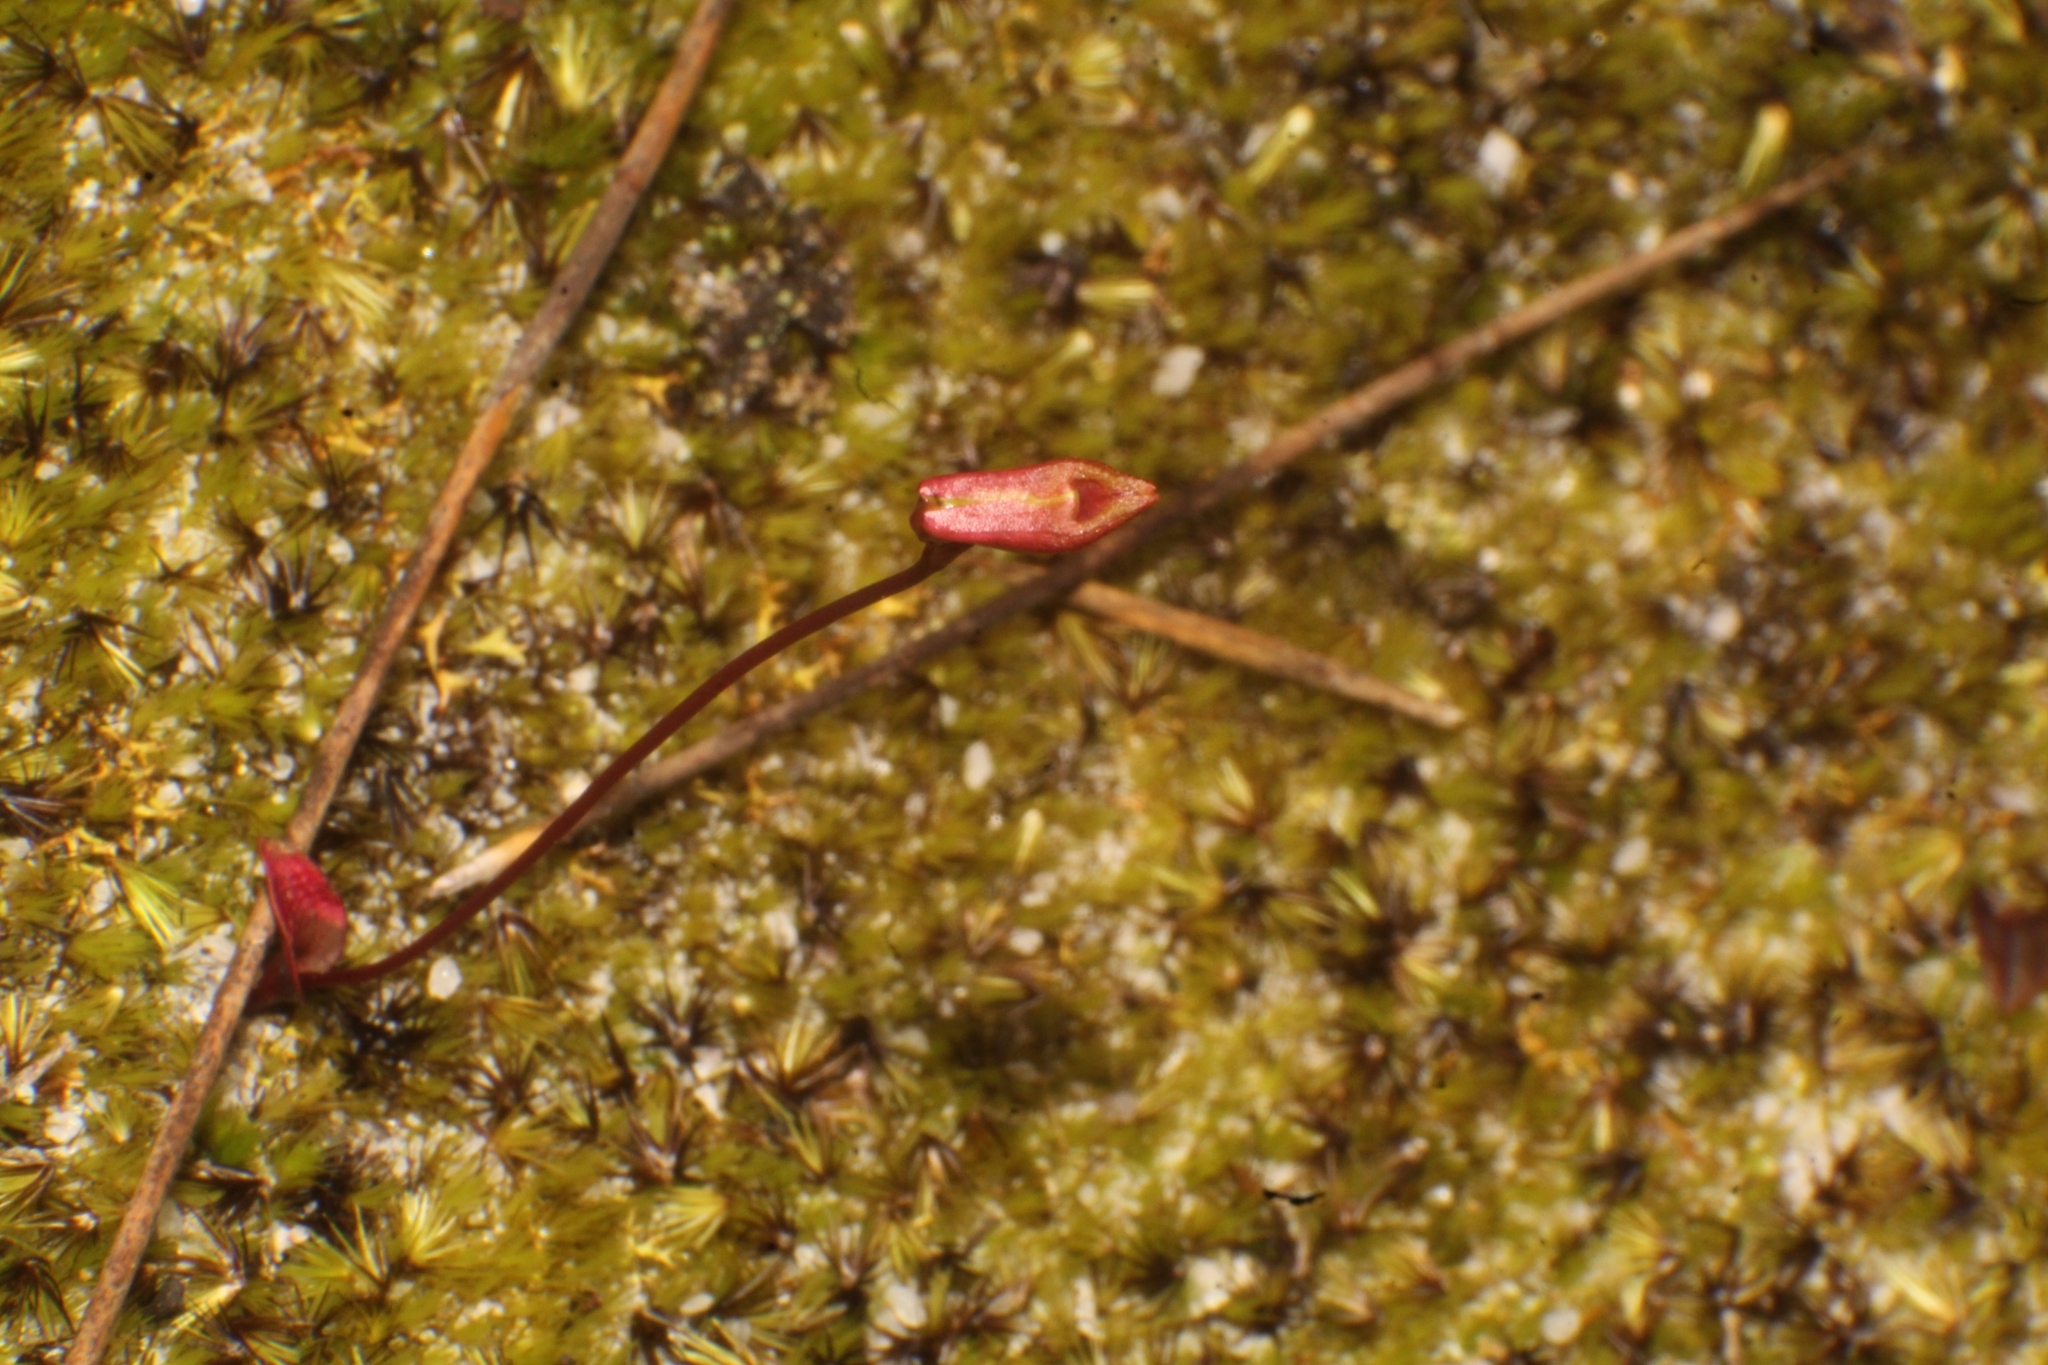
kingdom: Plantae
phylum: Tracheophyta
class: Liliopsida
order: Asparagales
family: Orchidaceae
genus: Caleana
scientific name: Caleana nigrita
